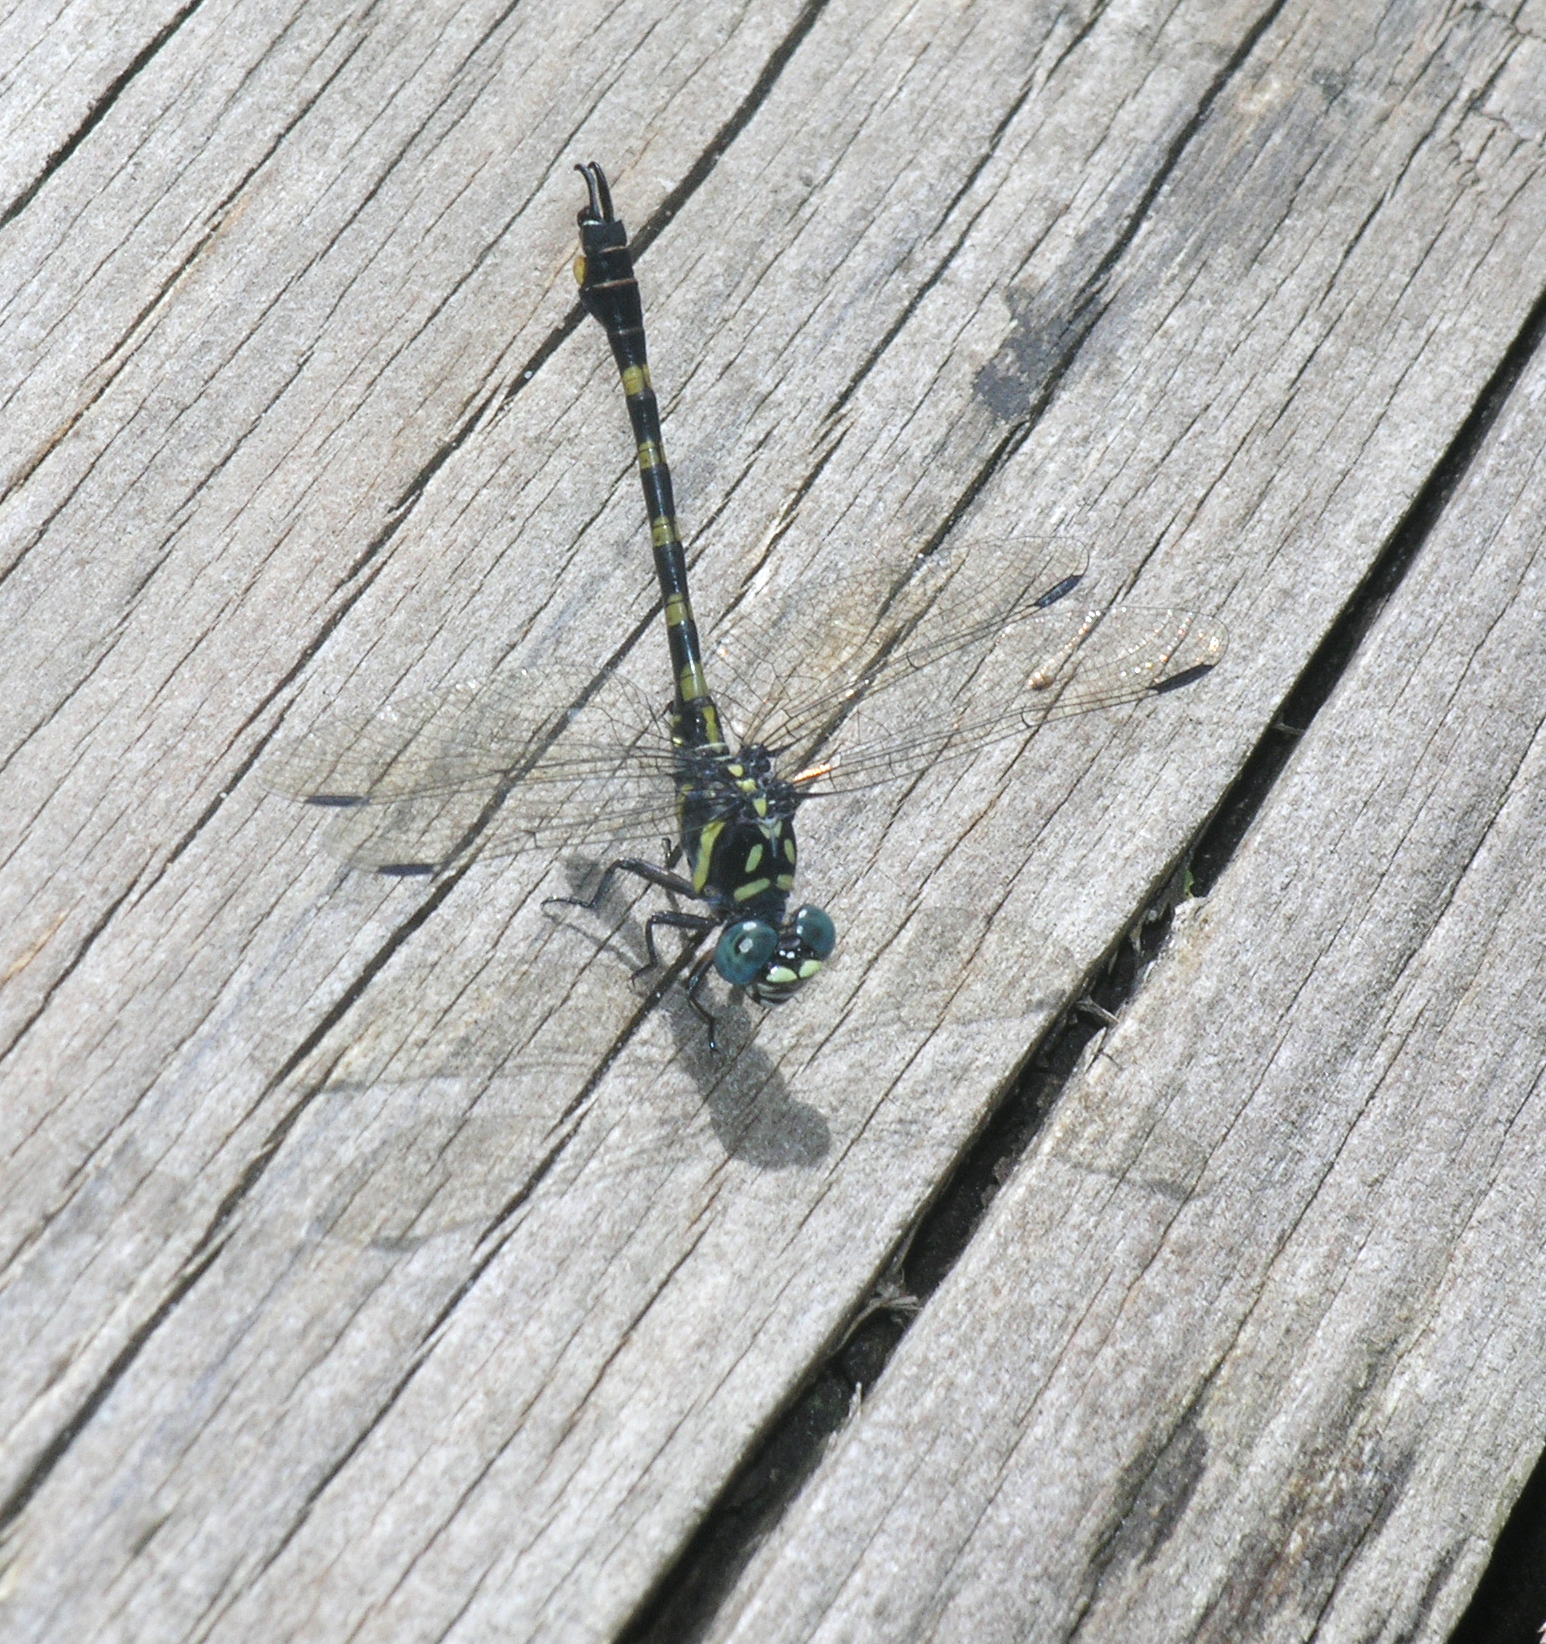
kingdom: Animalia
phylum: Arthropoda
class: Insecta
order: Odonata
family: Gomphidae
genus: Paragomphus
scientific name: Paragomphus capricornis
